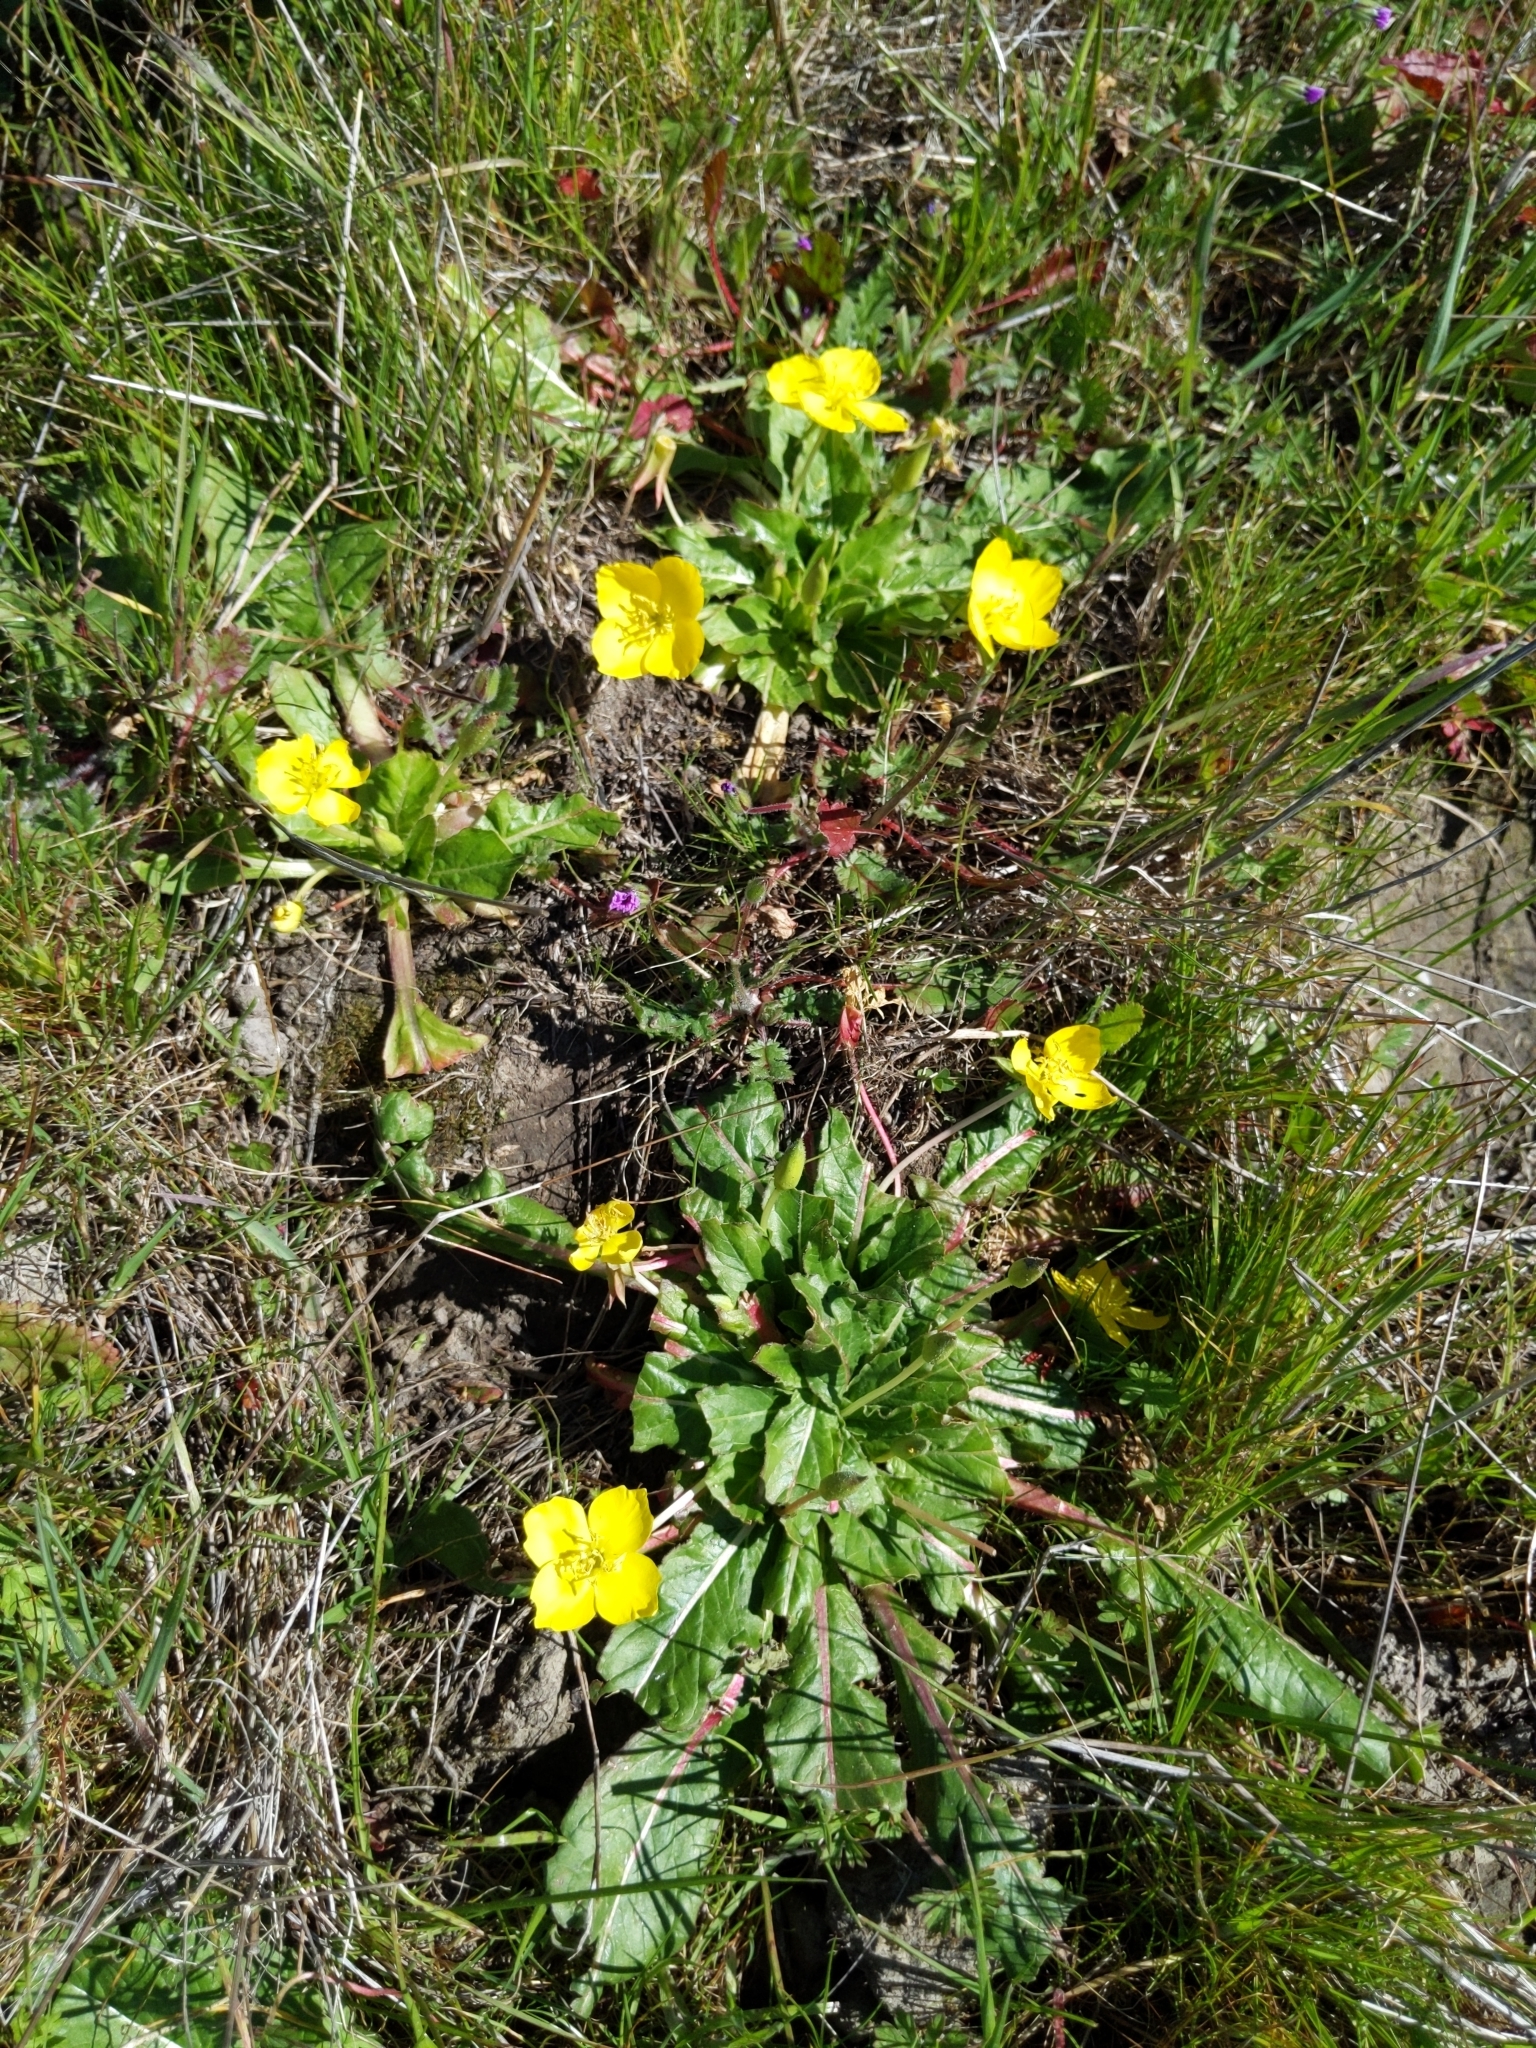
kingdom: Plantae
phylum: Tracheophyta
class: Magnoliopsida
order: Myrtales
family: Onagraceae
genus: Taraxia
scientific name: Taraxia ovata
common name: Goldeneggs
